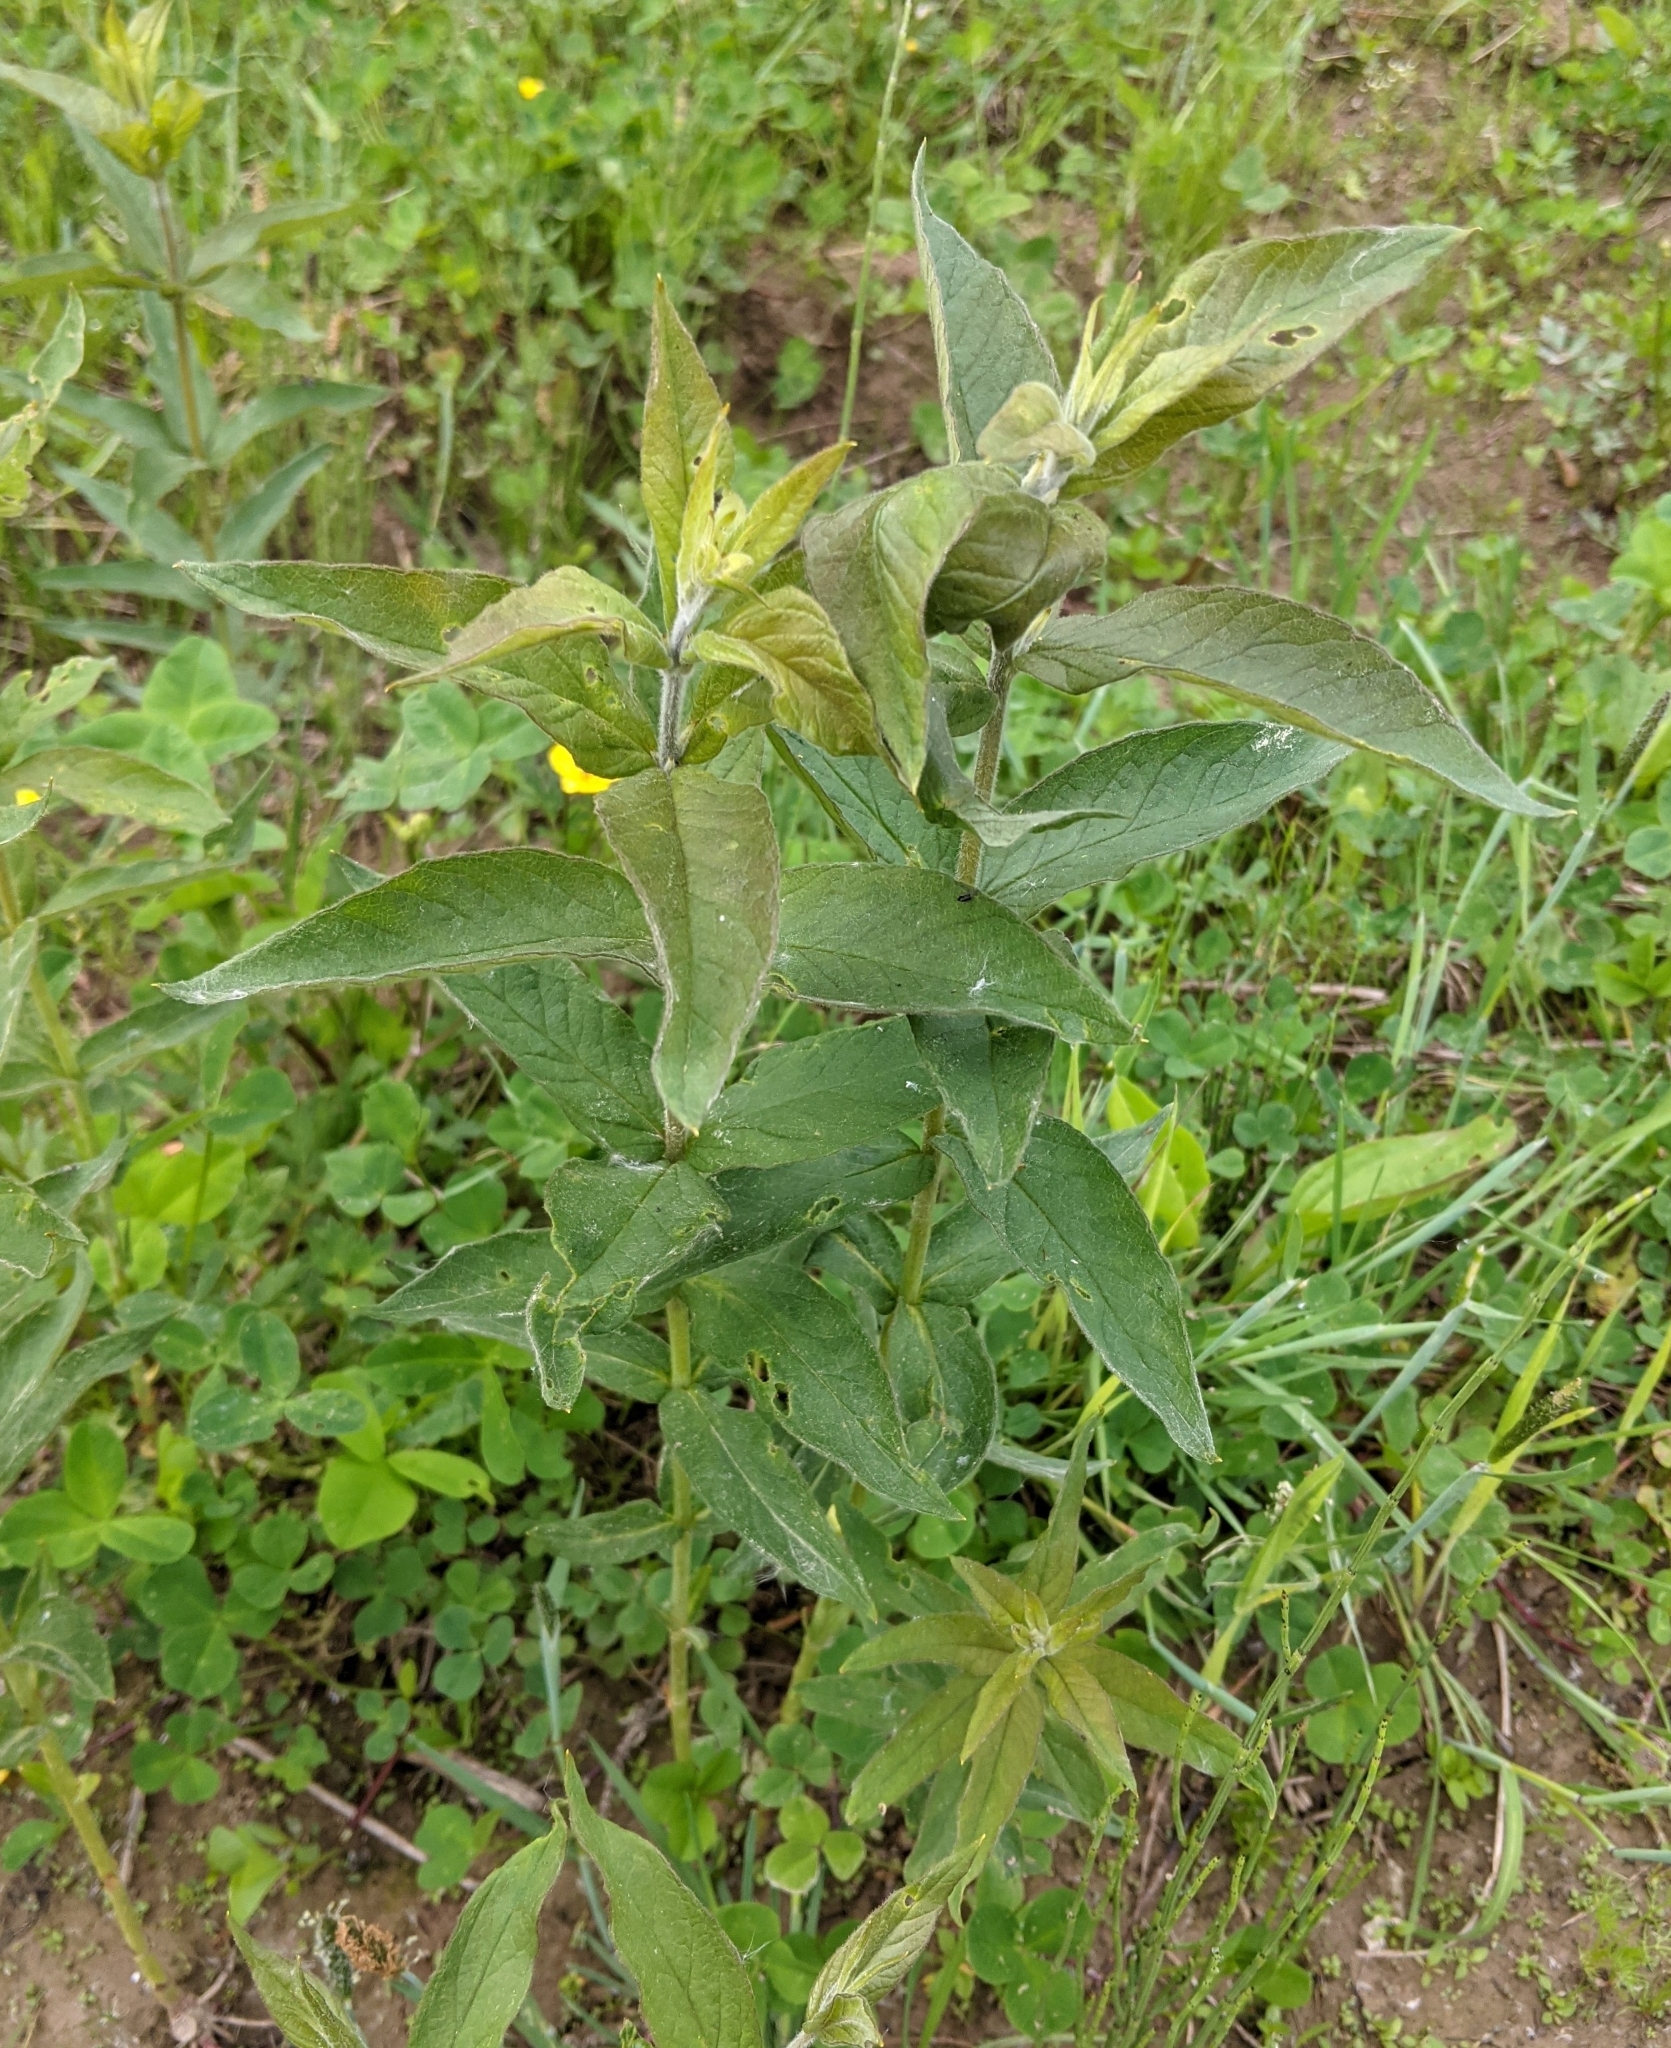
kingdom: Plantae
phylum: Tracheophyta
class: Magnoliopsida
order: Ericales
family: Primulaceae
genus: Lysimachia
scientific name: Lysimachia vulgaris
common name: Yellow loosestrife
